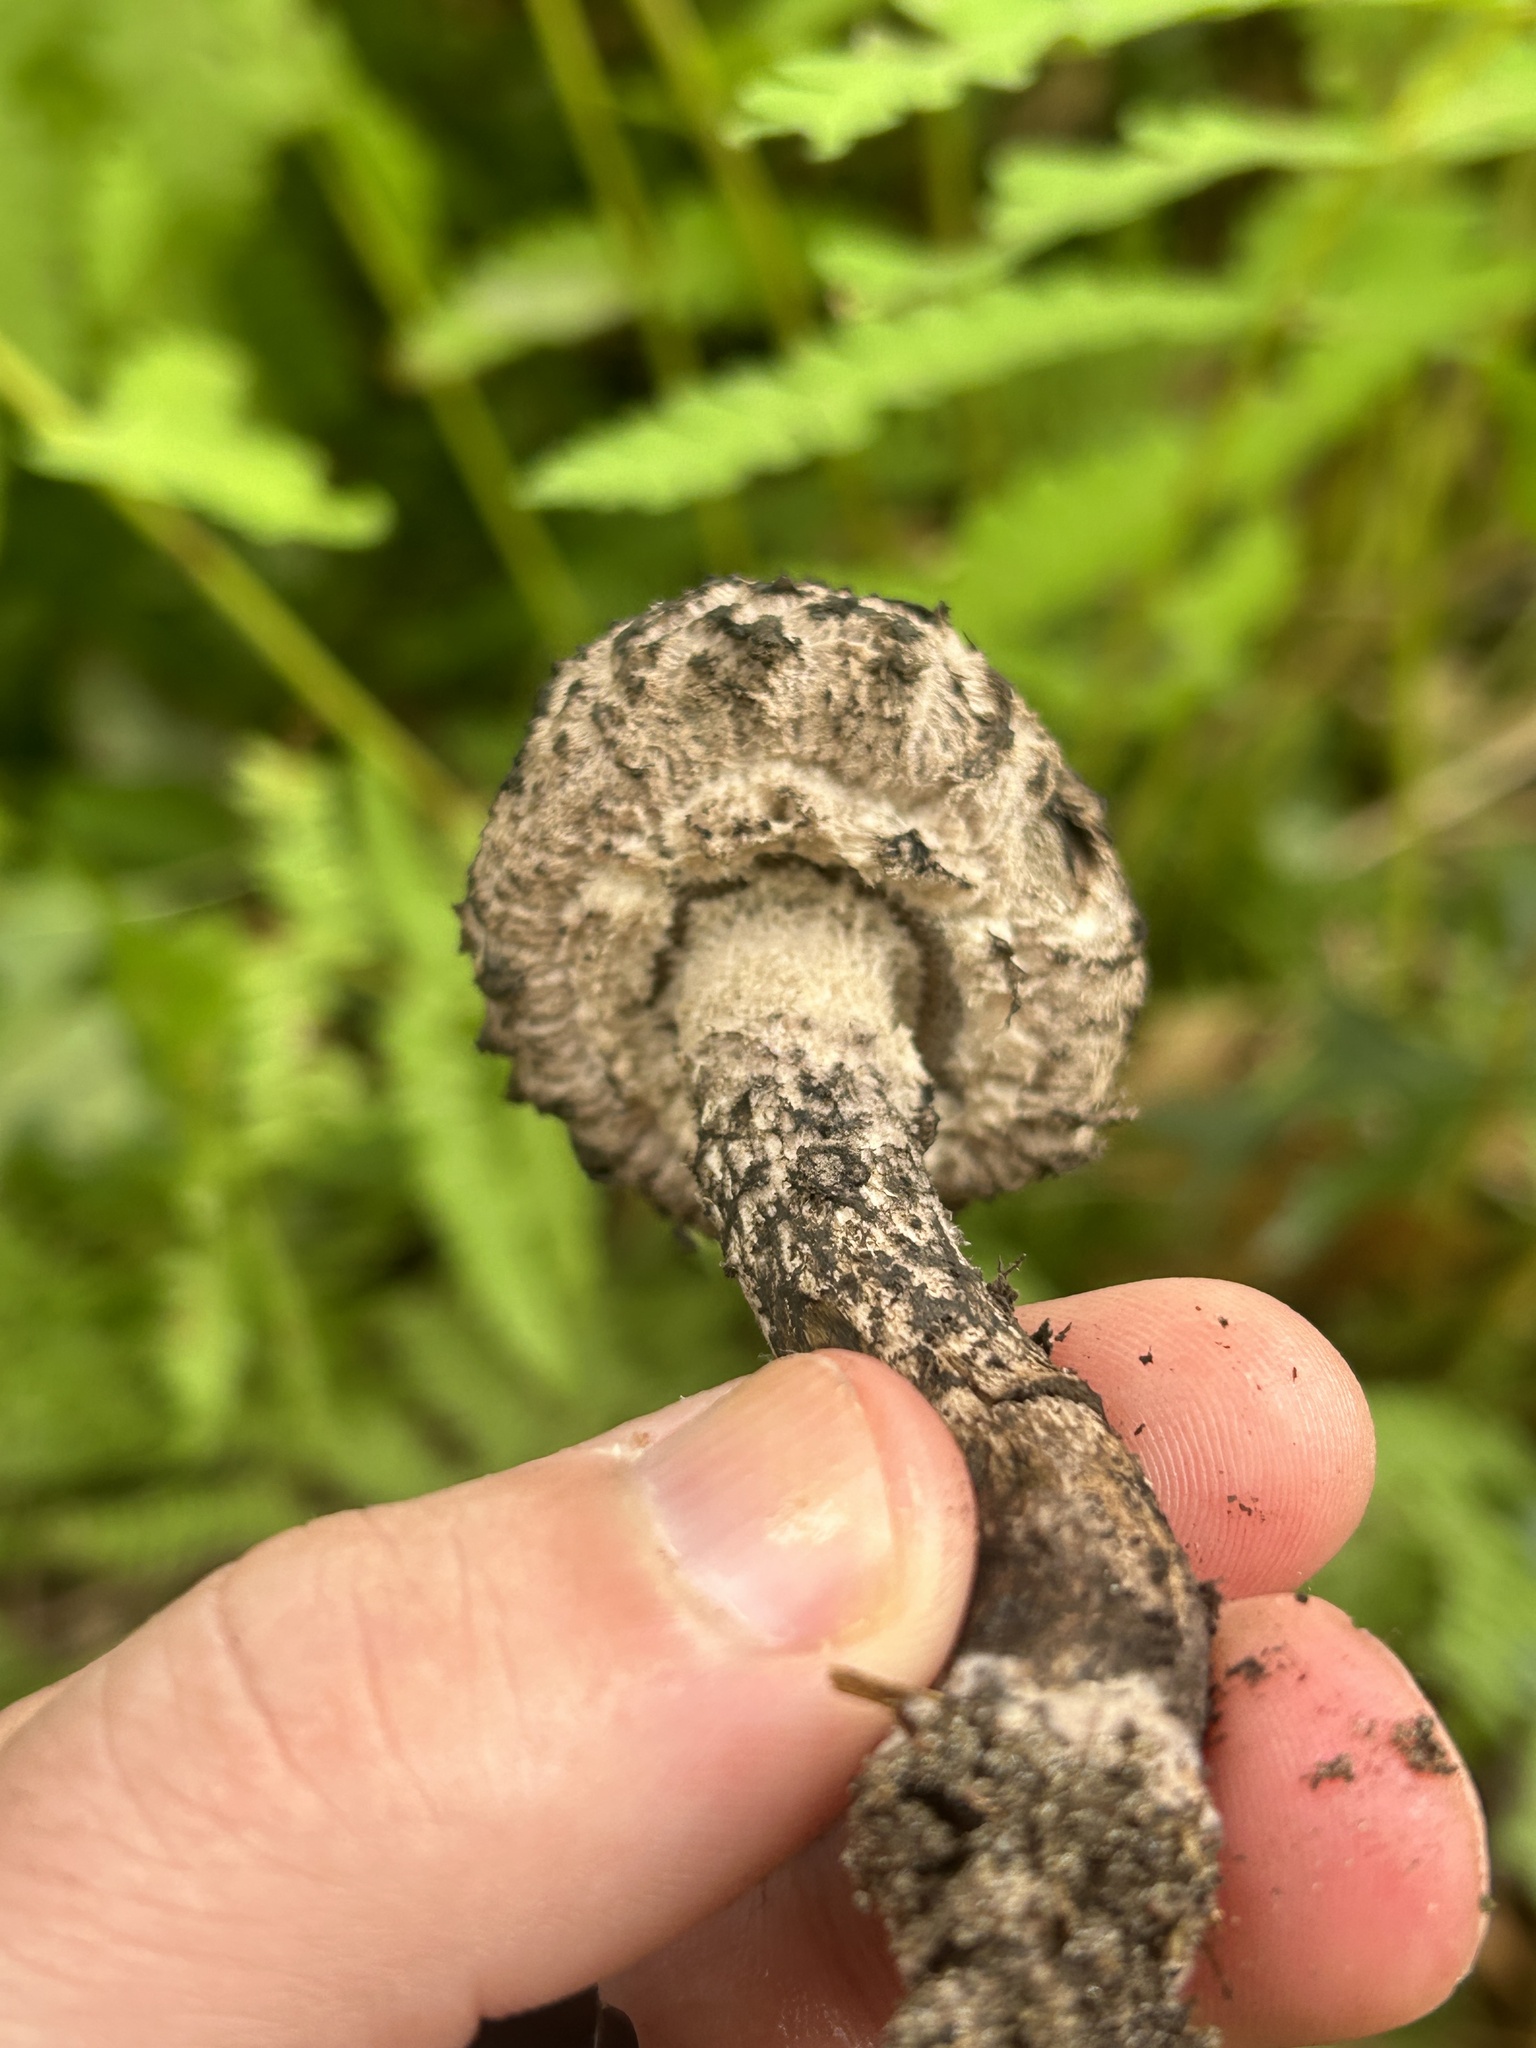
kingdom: Fungi
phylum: Basidiomycota
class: Agaricomycetes
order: Boletales
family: Boletaceae
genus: Strobilomyces
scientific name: Strobilomyces strobilaceus
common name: Old man of the woods
